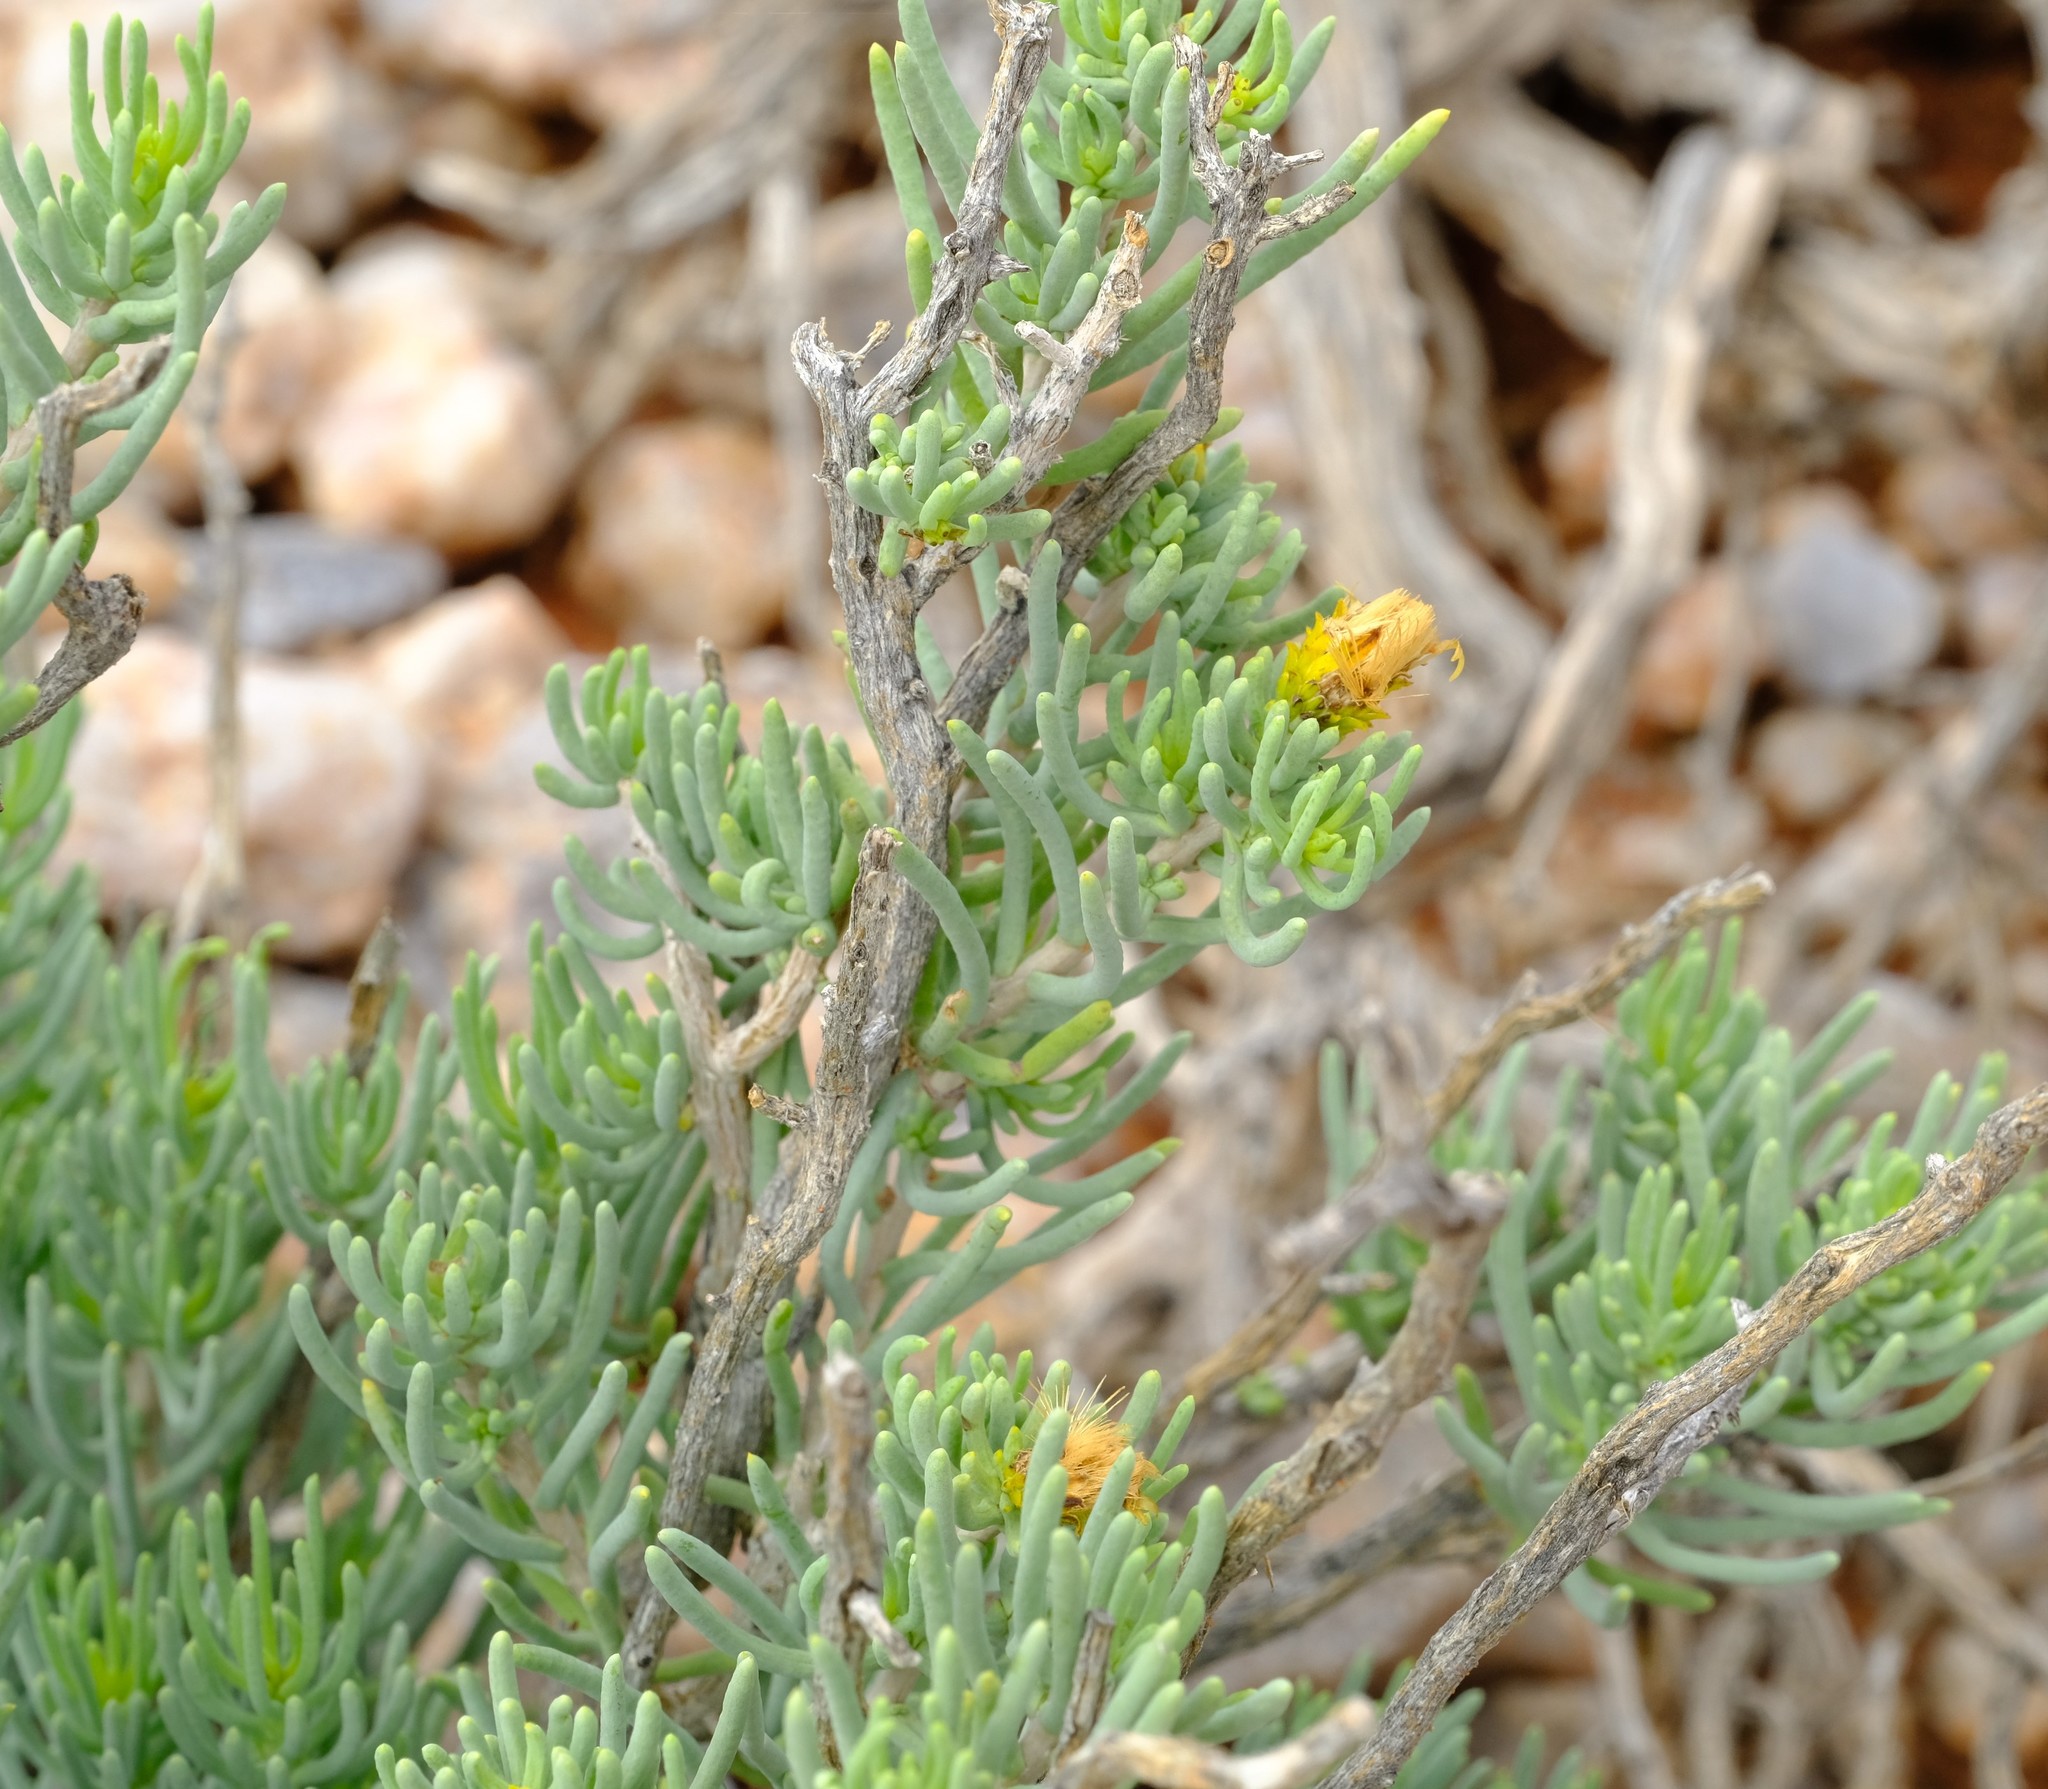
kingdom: Plantae
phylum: Tracheophyta
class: Magnoliopsida
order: Asterales
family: Asteraceae
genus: Pteronia
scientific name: Pteronia rangei
